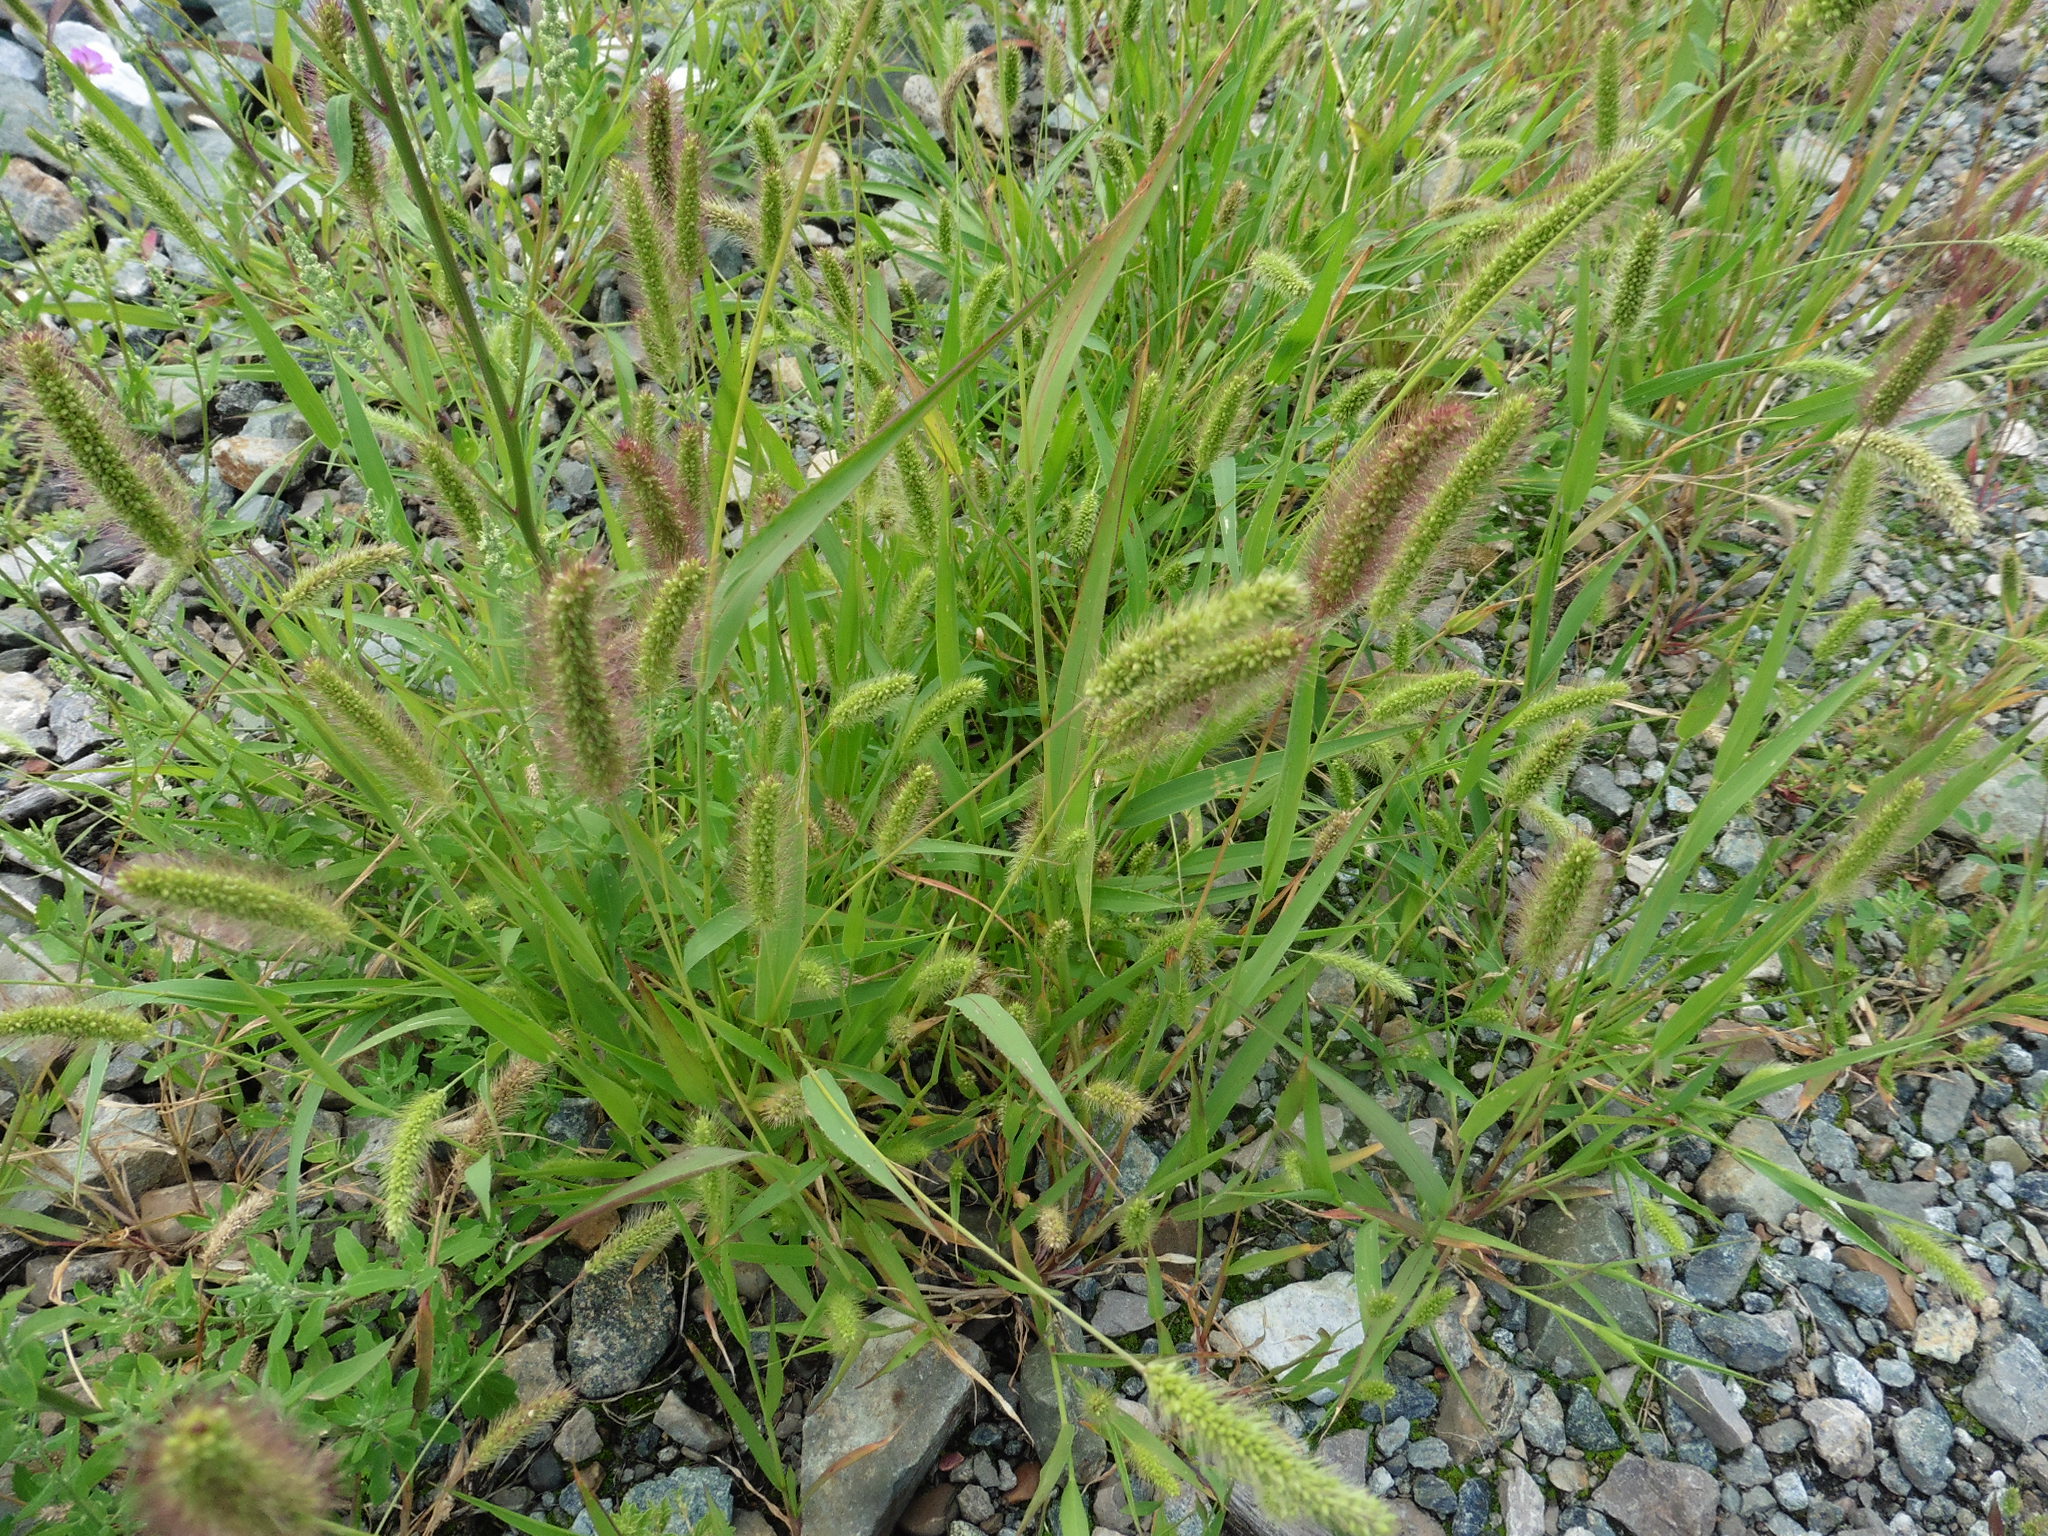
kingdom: Plantae
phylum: Tracheophyta
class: Liliopsida
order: Poales
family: Poaceae
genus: Setaria
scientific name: Setaria viridis
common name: Green bristlegrass
